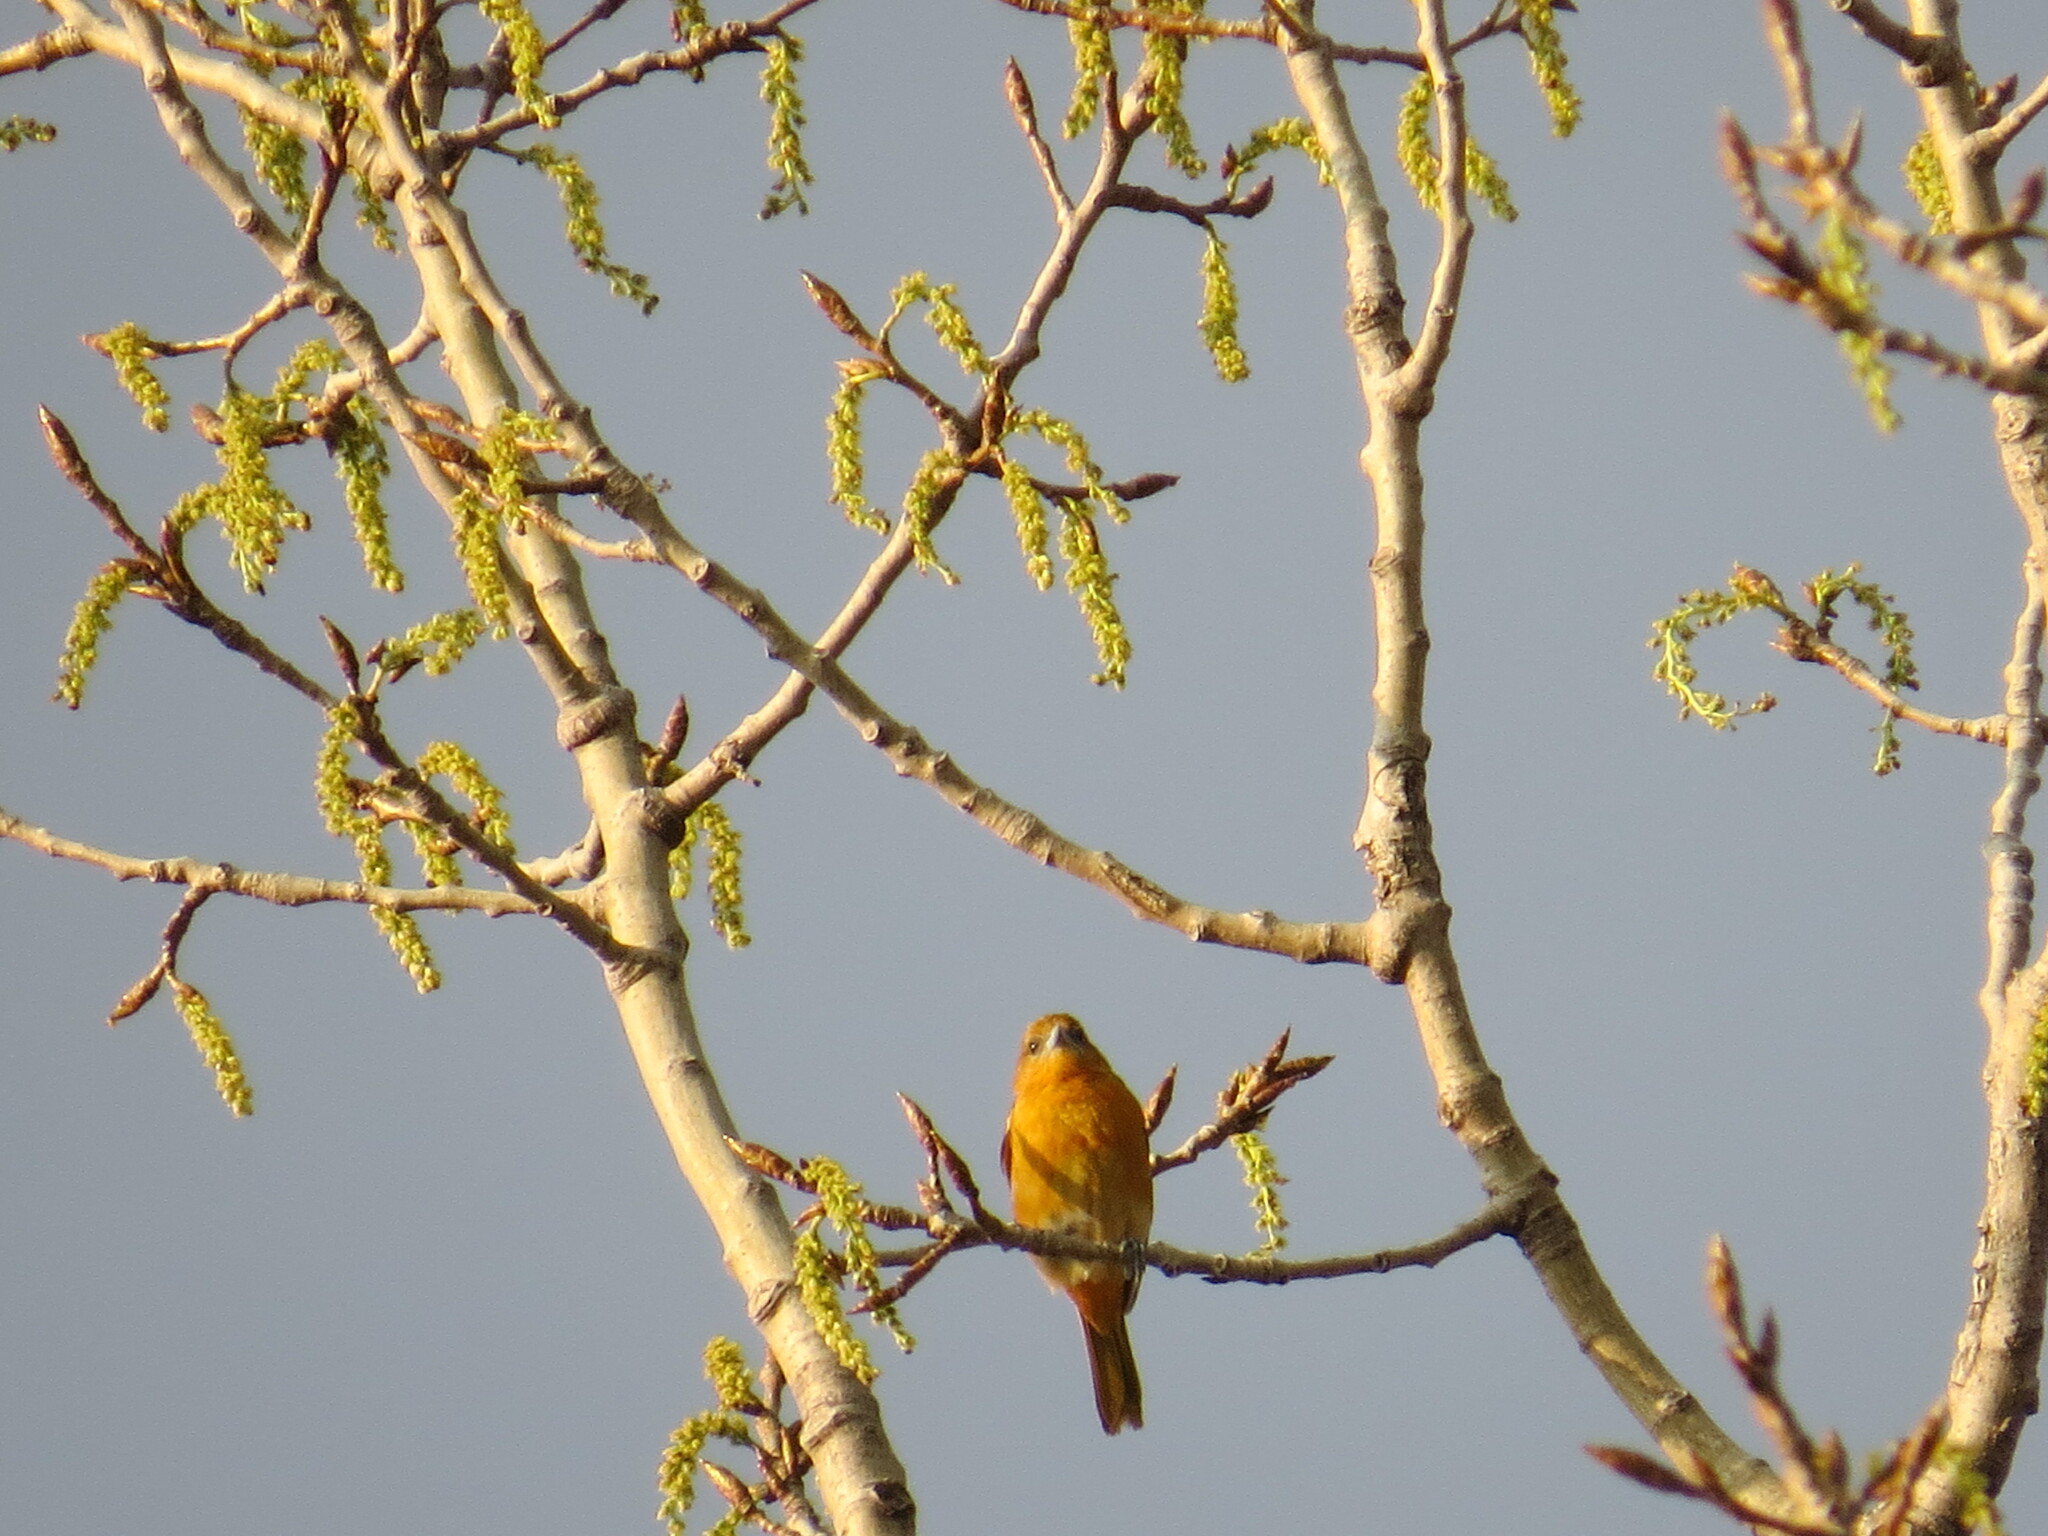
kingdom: Animalia
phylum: Chordata
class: Aves
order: Passeriformes
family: Icteridae
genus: Icterus
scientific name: Icterus galbula
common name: Baltimore oriole
